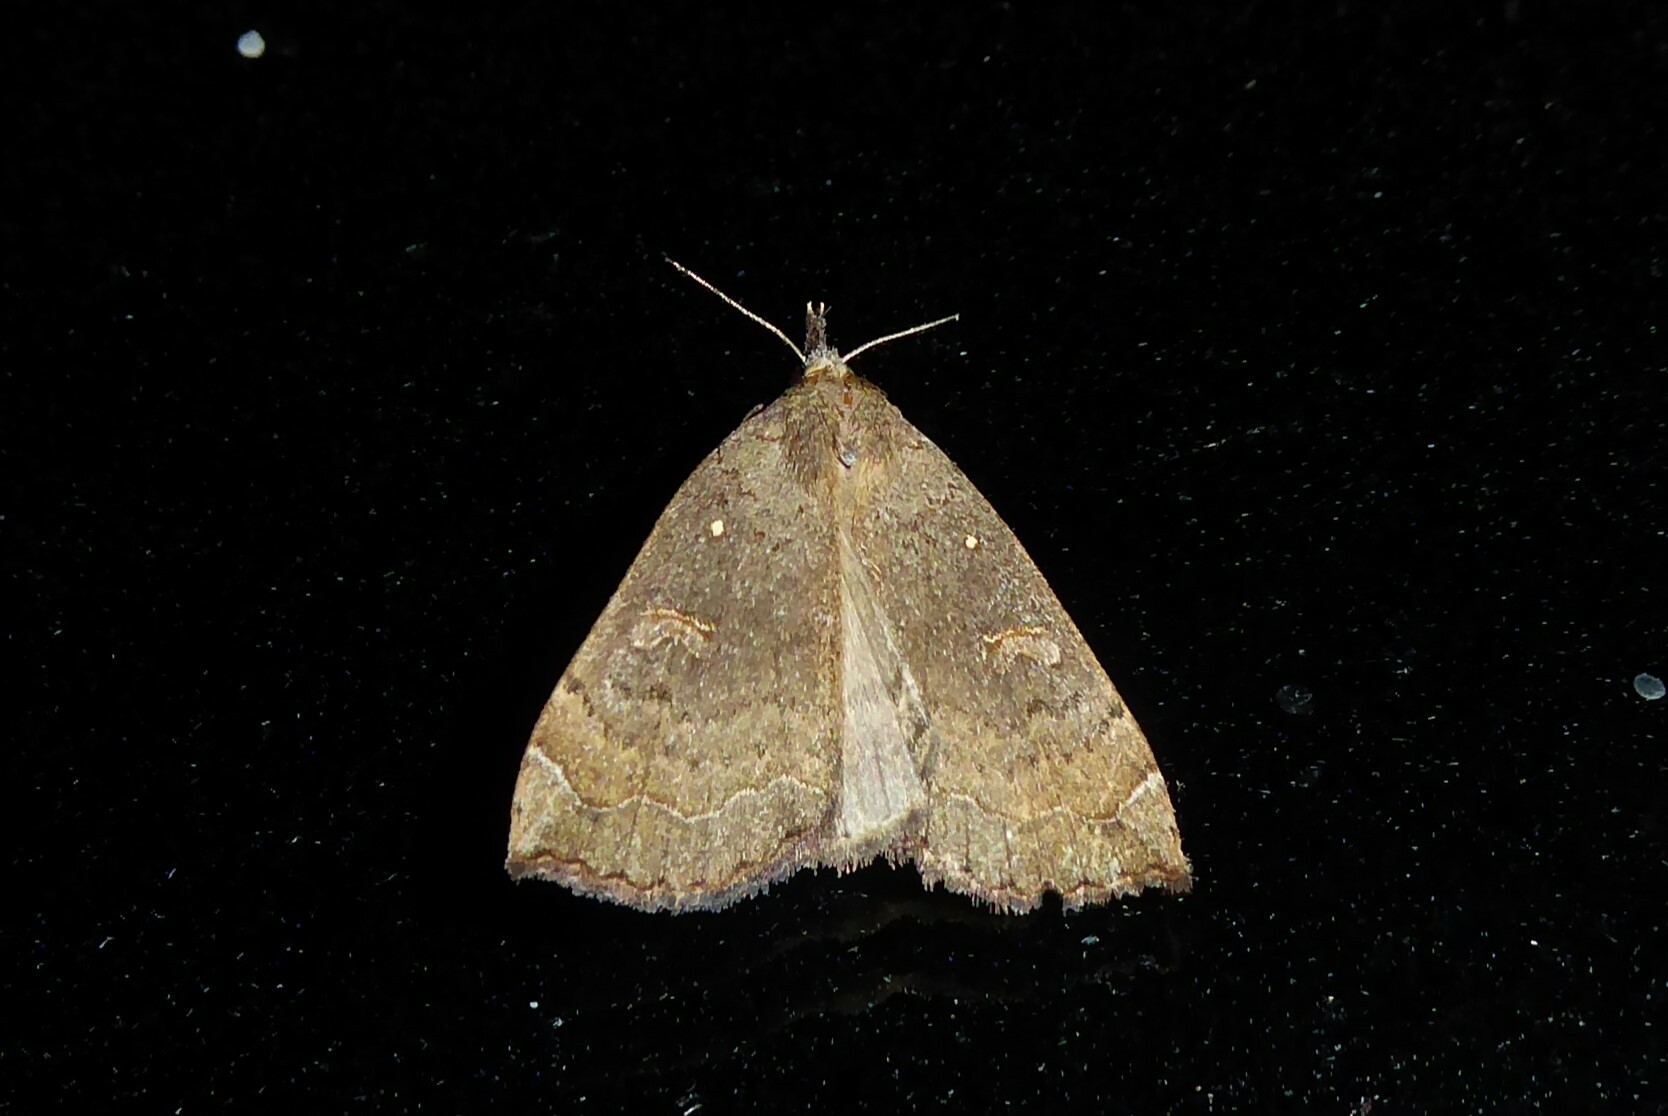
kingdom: Animalia
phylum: Arthropoda
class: Insecta
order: Lepidoptera
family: Erebidae
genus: Rhapsa
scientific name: Rhapsa scotosialis
